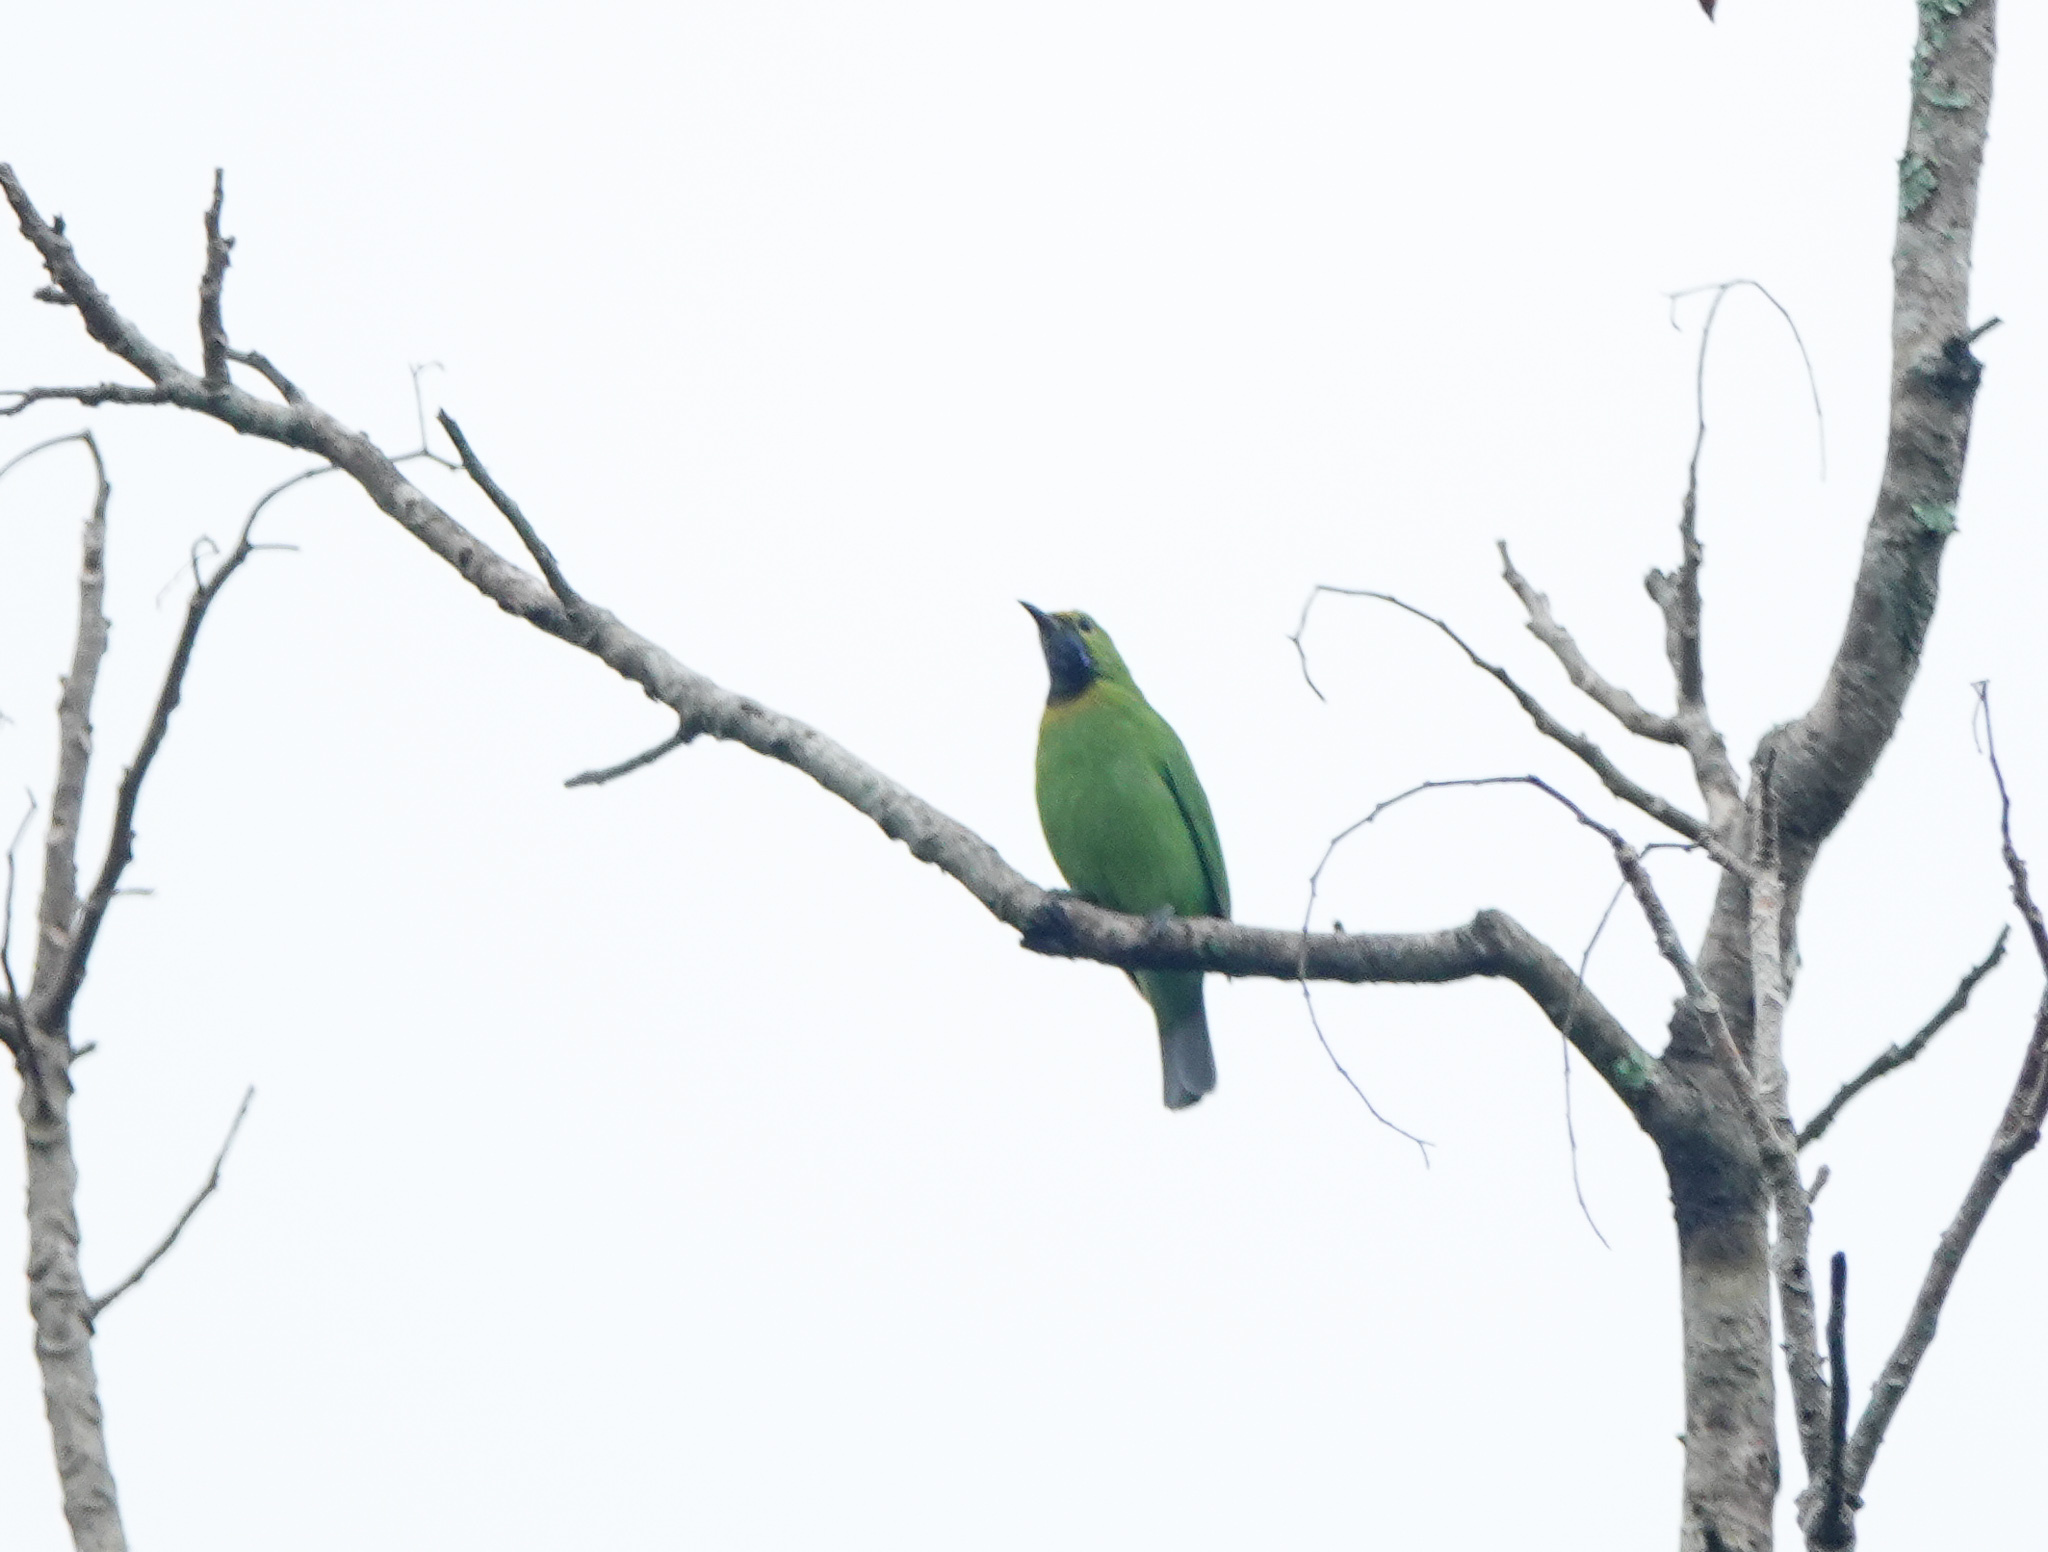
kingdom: Animalia
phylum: Chordata
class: Aves
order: Passeriformes
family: Chloropseidae
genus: Chloropsis
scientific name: Chloropsis aurifrons
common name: Golden-fronted leafbird
